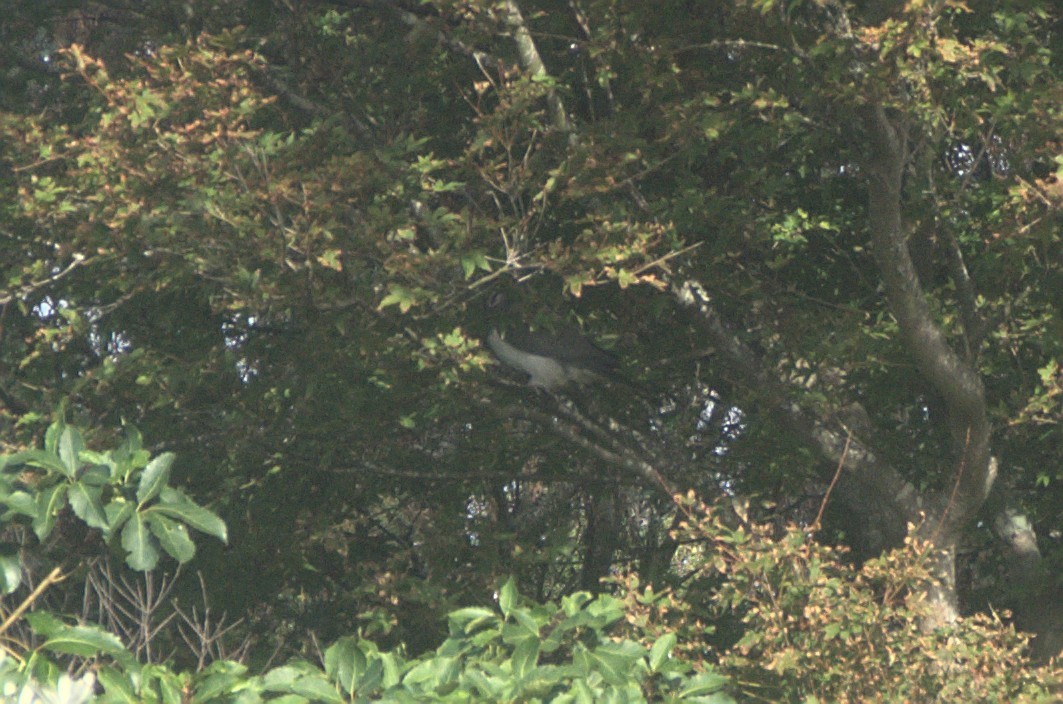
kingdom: Animalia
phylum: Chordata
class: Aves
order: Columbiformes
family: Columbidae
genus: Hemiphaga
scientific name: Hemiphaga novaeseelandiae
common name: New zealand pigeon
